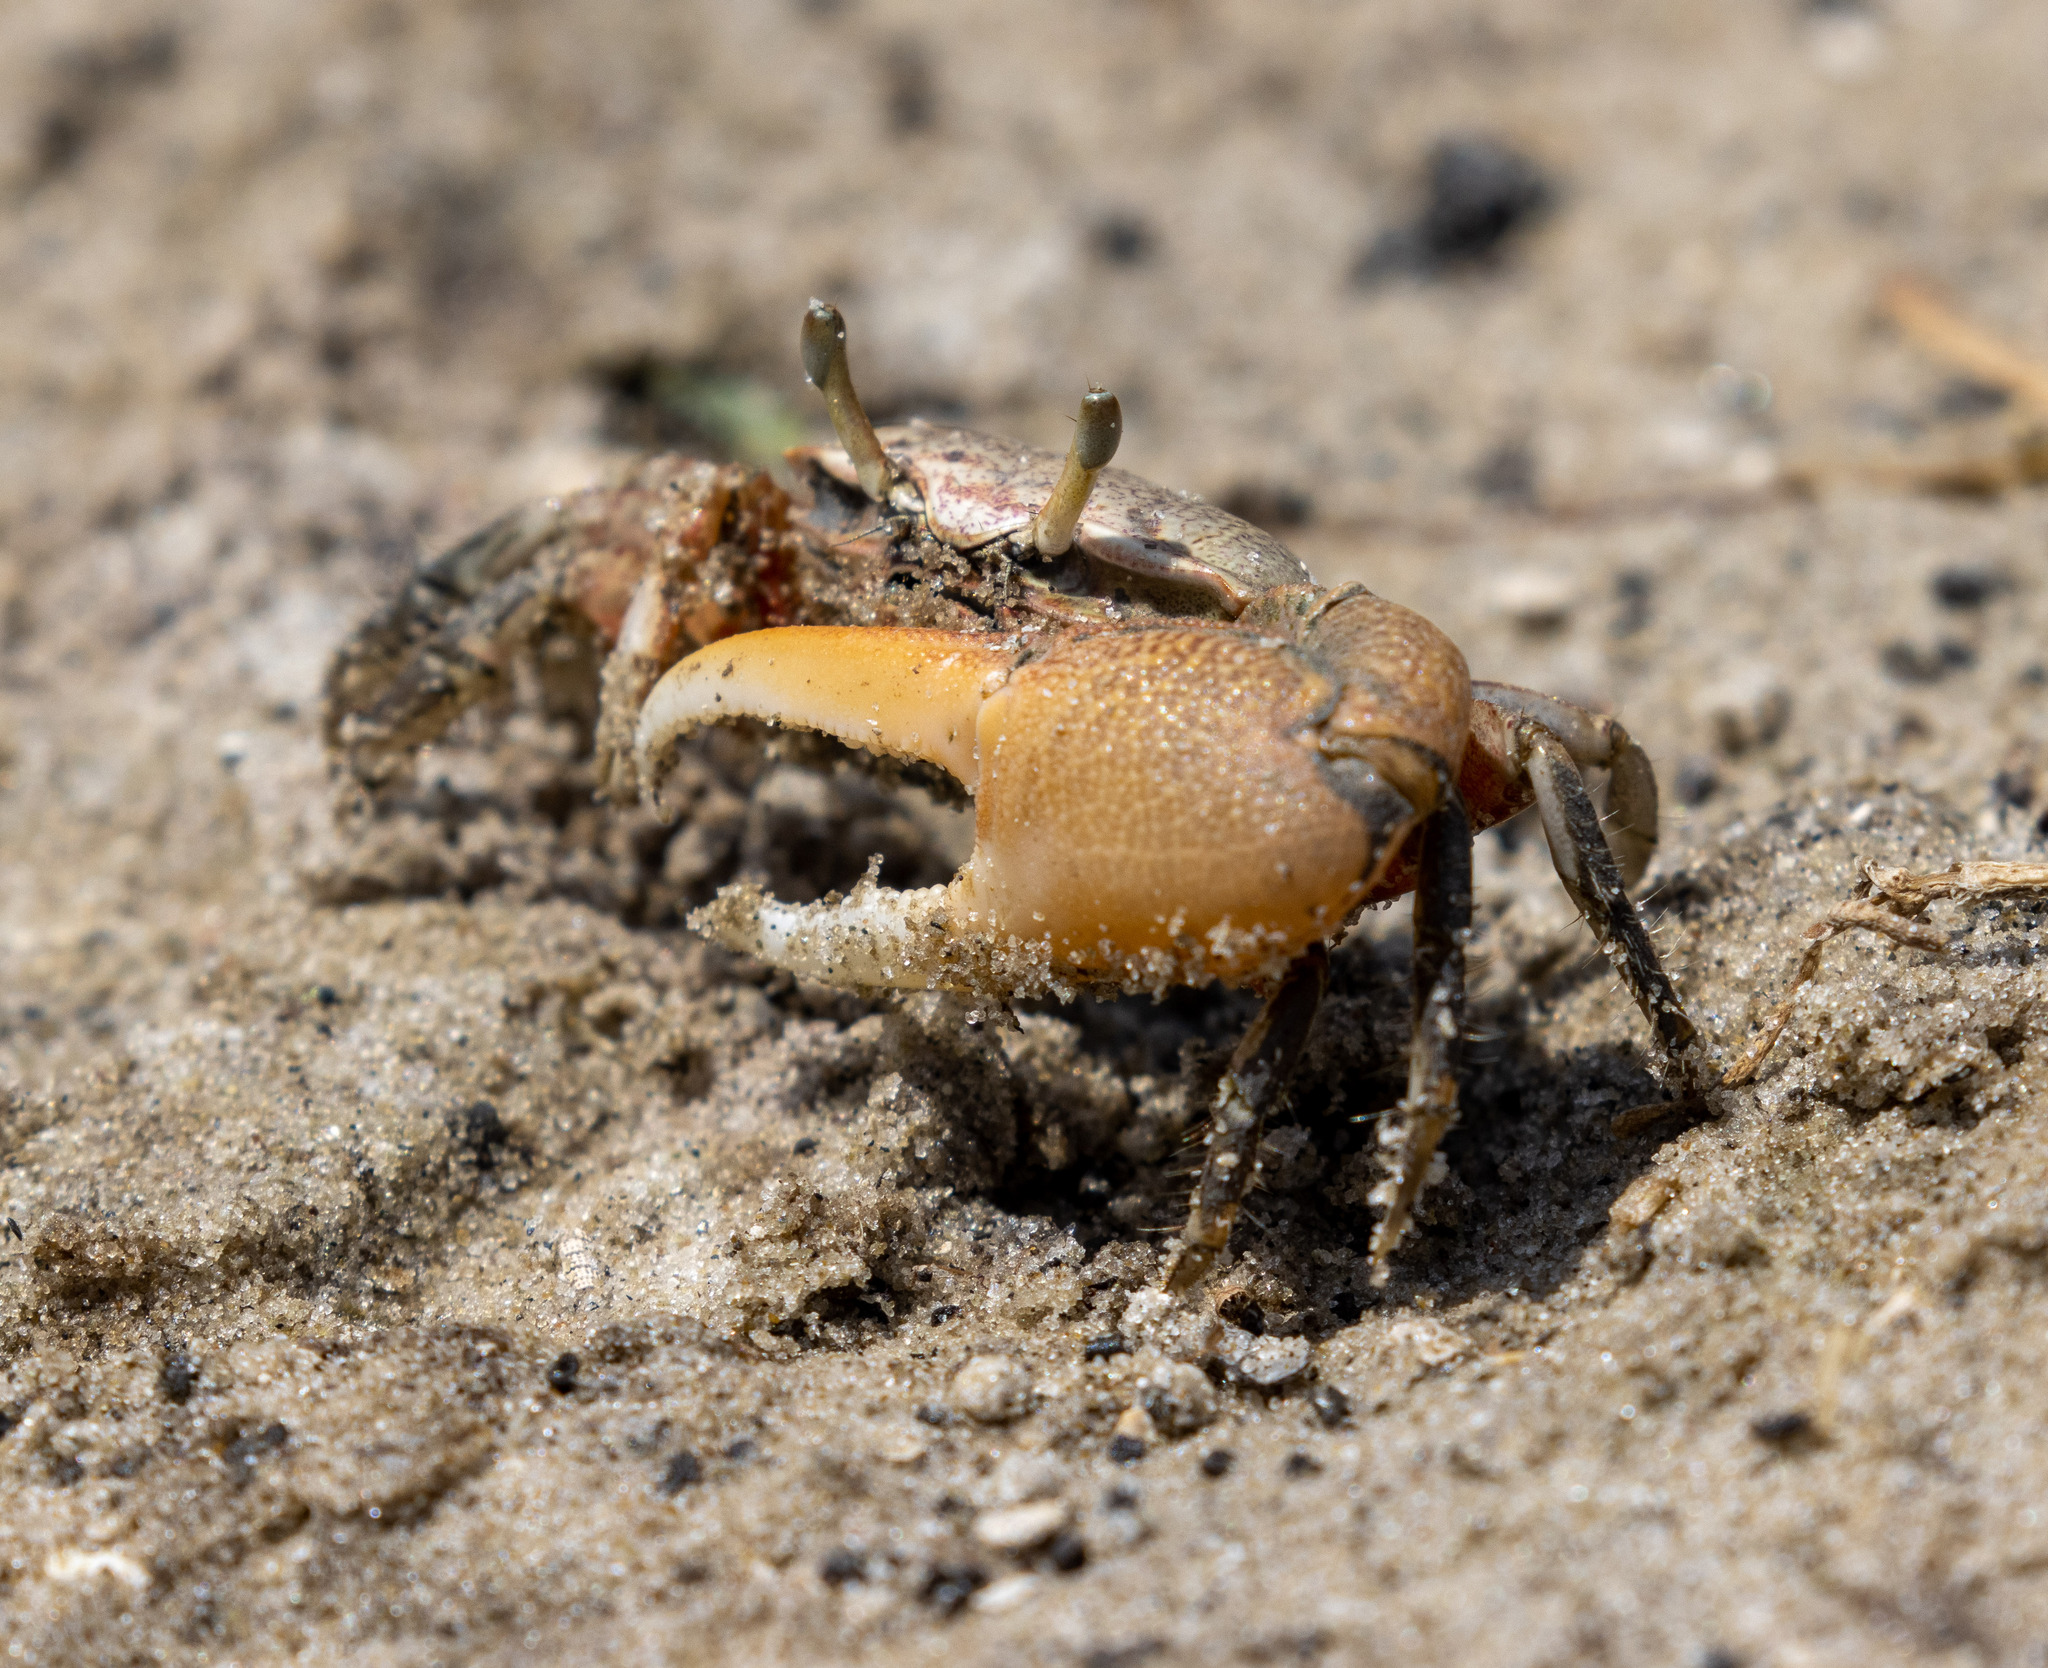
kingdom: Animalia
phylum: Arthropoda
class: Malacostraca
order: Decapoda
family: Ocypodidae
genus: Minuca
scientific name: Minuca rapax
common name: Rapacious fiddler crab
